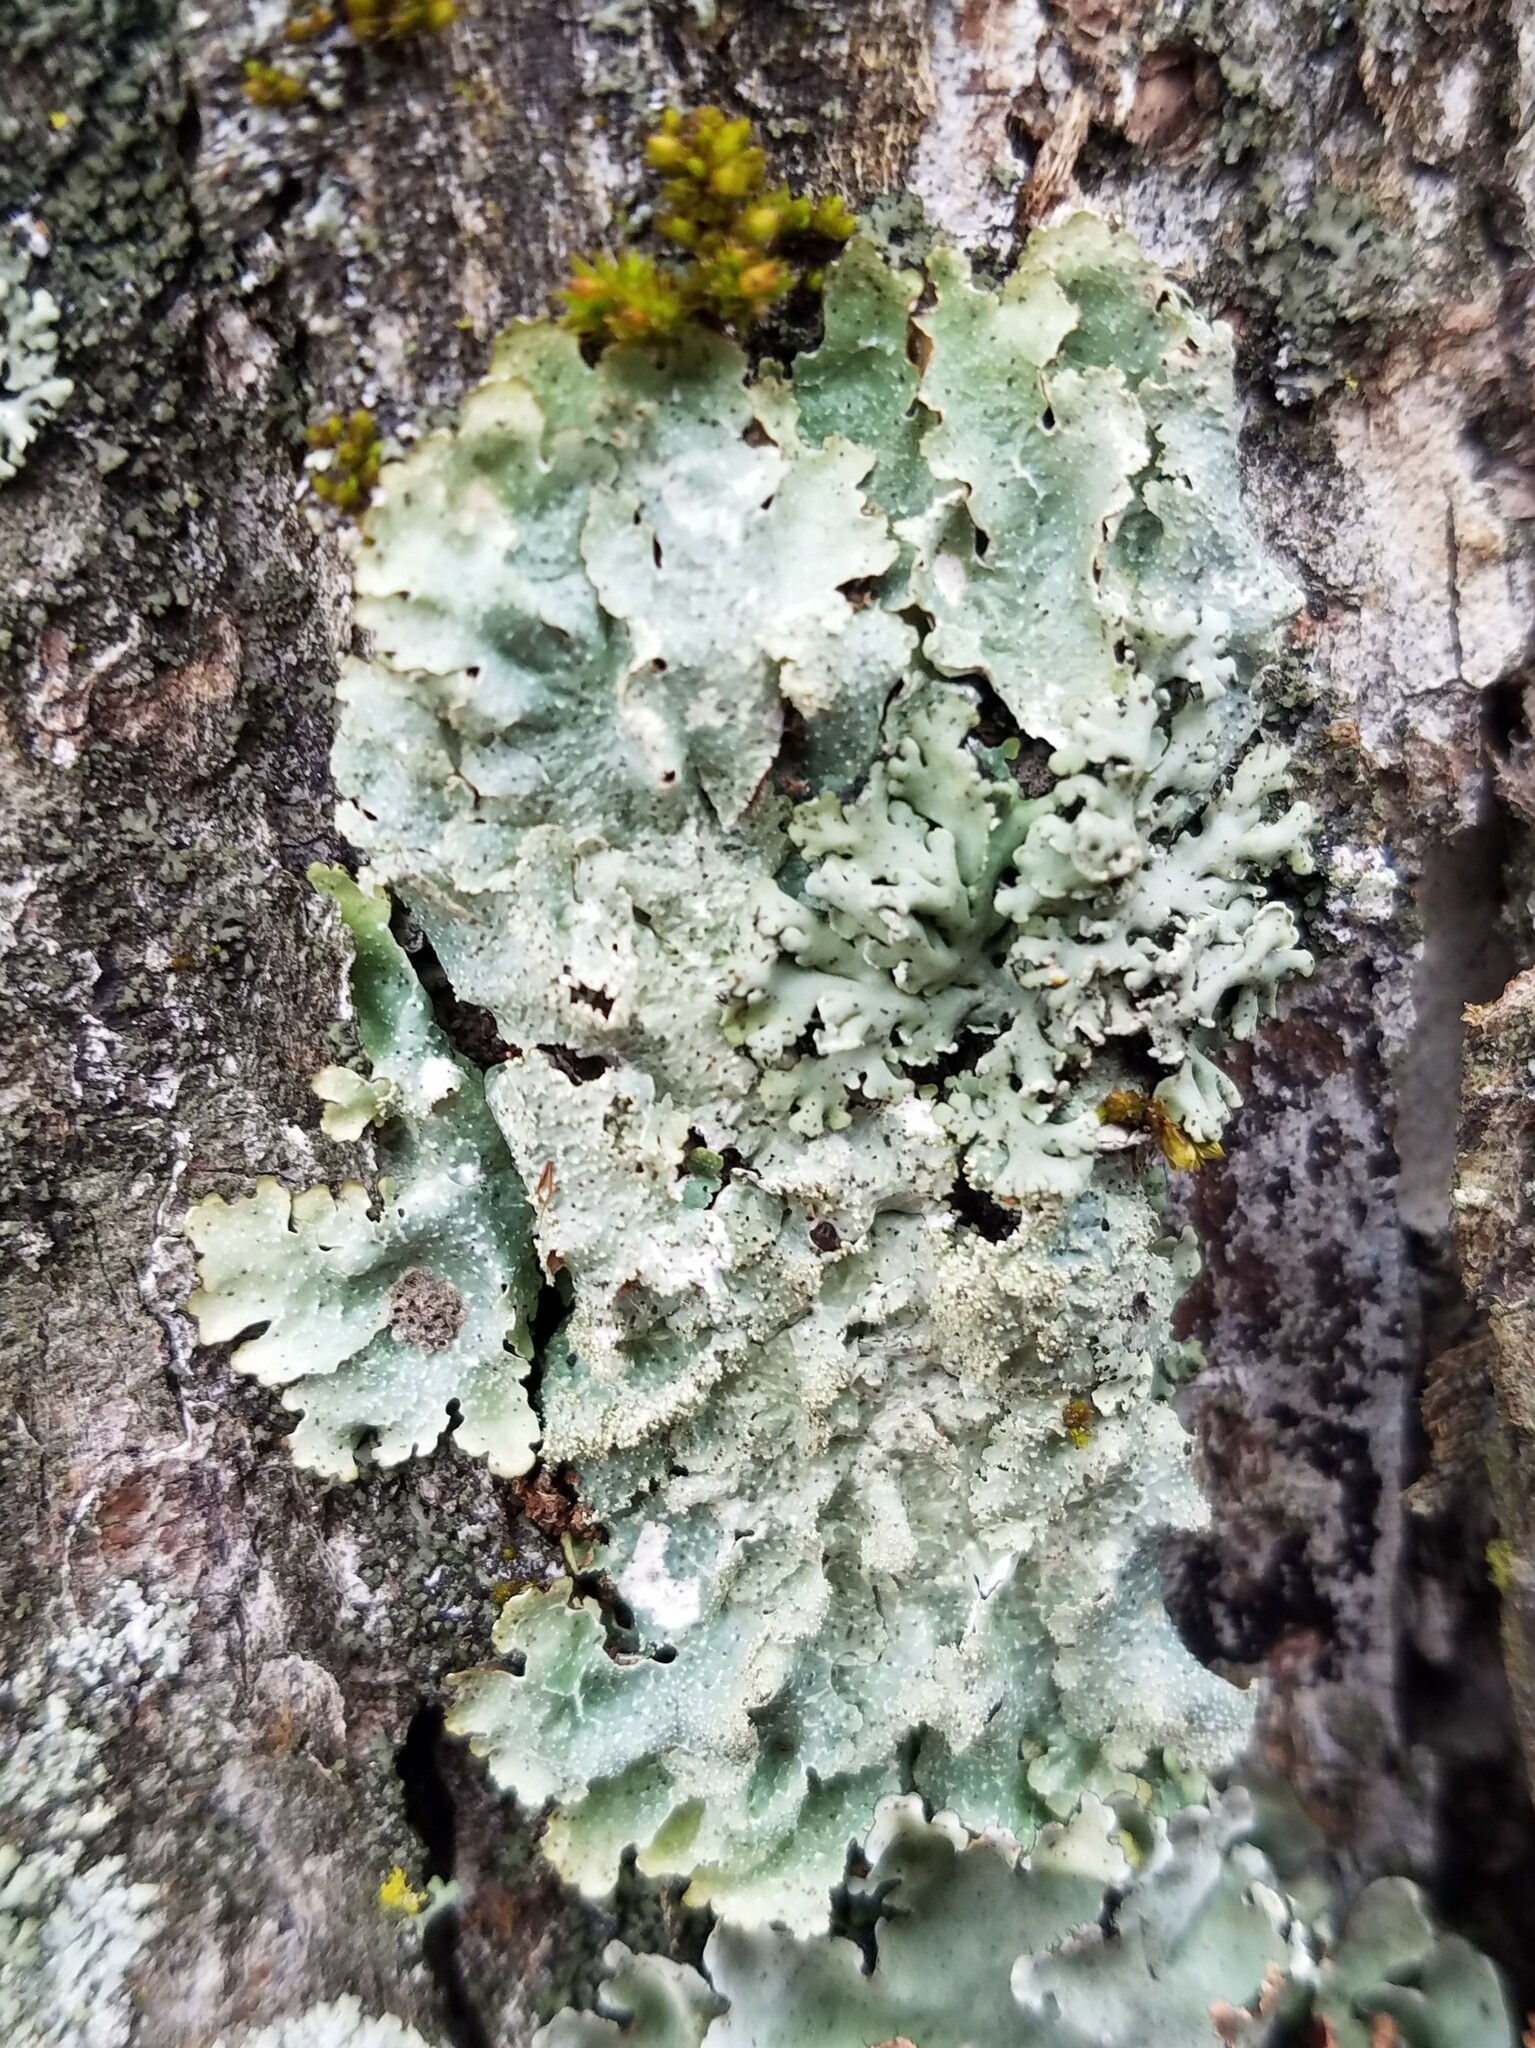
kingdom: Fungi
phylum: Ascomycota
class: Lecanoromycetes
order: Lecanorales
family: Parmeliaceae
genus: Punctelia
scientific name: Punctelia rudecta
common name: Rough speckled shield lichen
